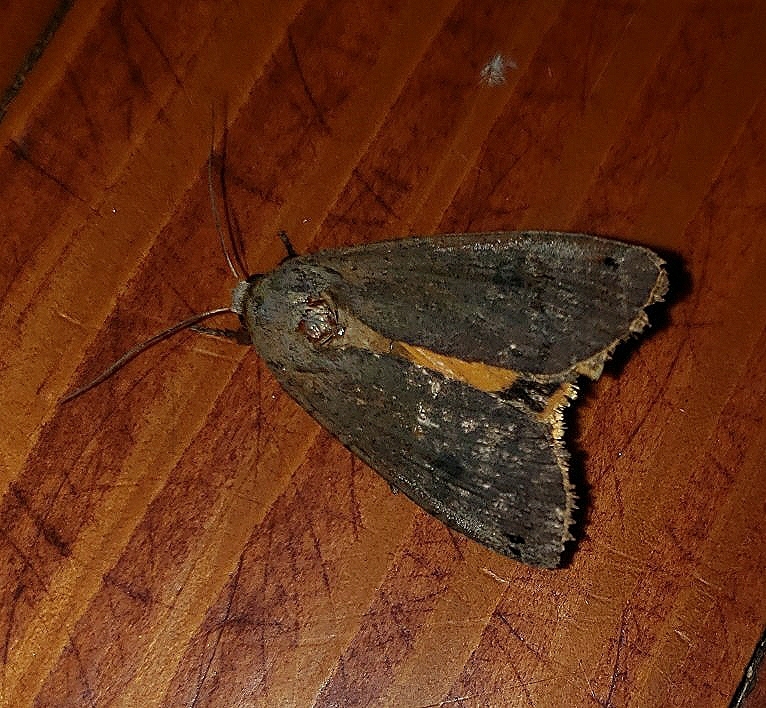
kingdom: Animalia
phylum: Arthropoda
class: Insecta
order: Lepidoptera
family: Noctuidae
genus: Noctua
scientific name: Noctua pronuba
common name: Large yellow underwing
